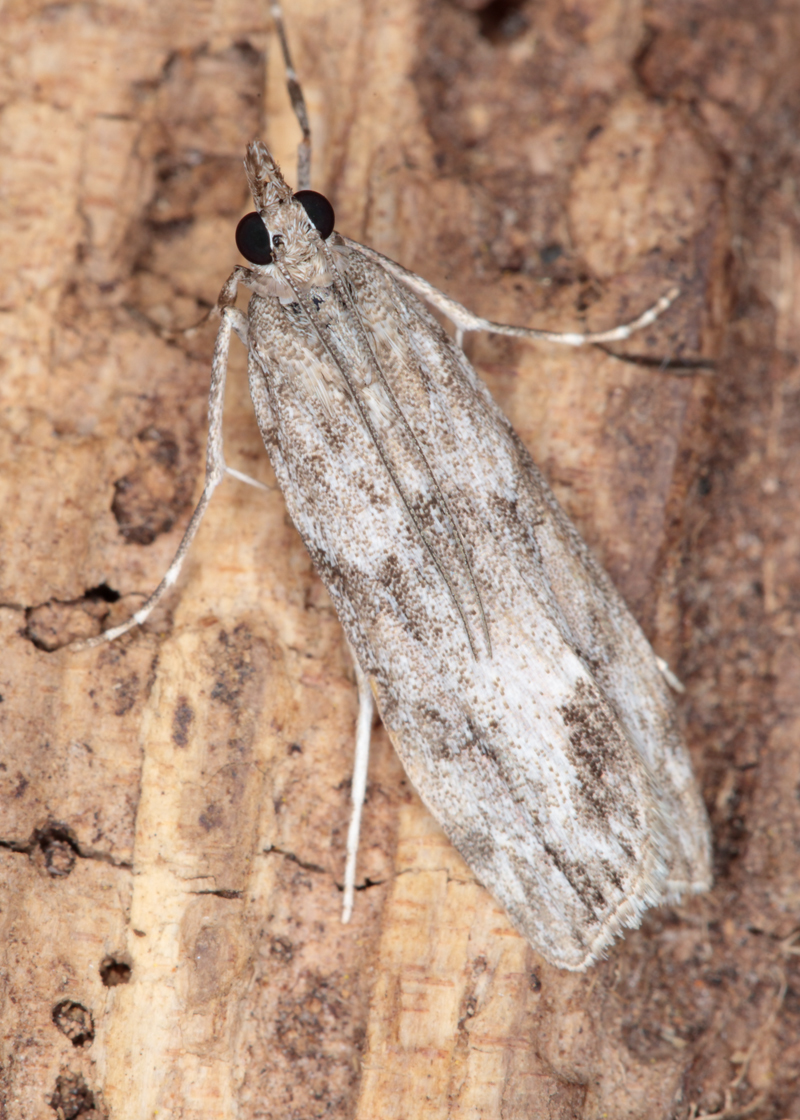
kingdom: Animalia
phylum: Arthropoda
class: Insecta
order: Lepidoptera
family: Crambidae
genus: Eudonia
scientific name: Eudonia rakaiensis
